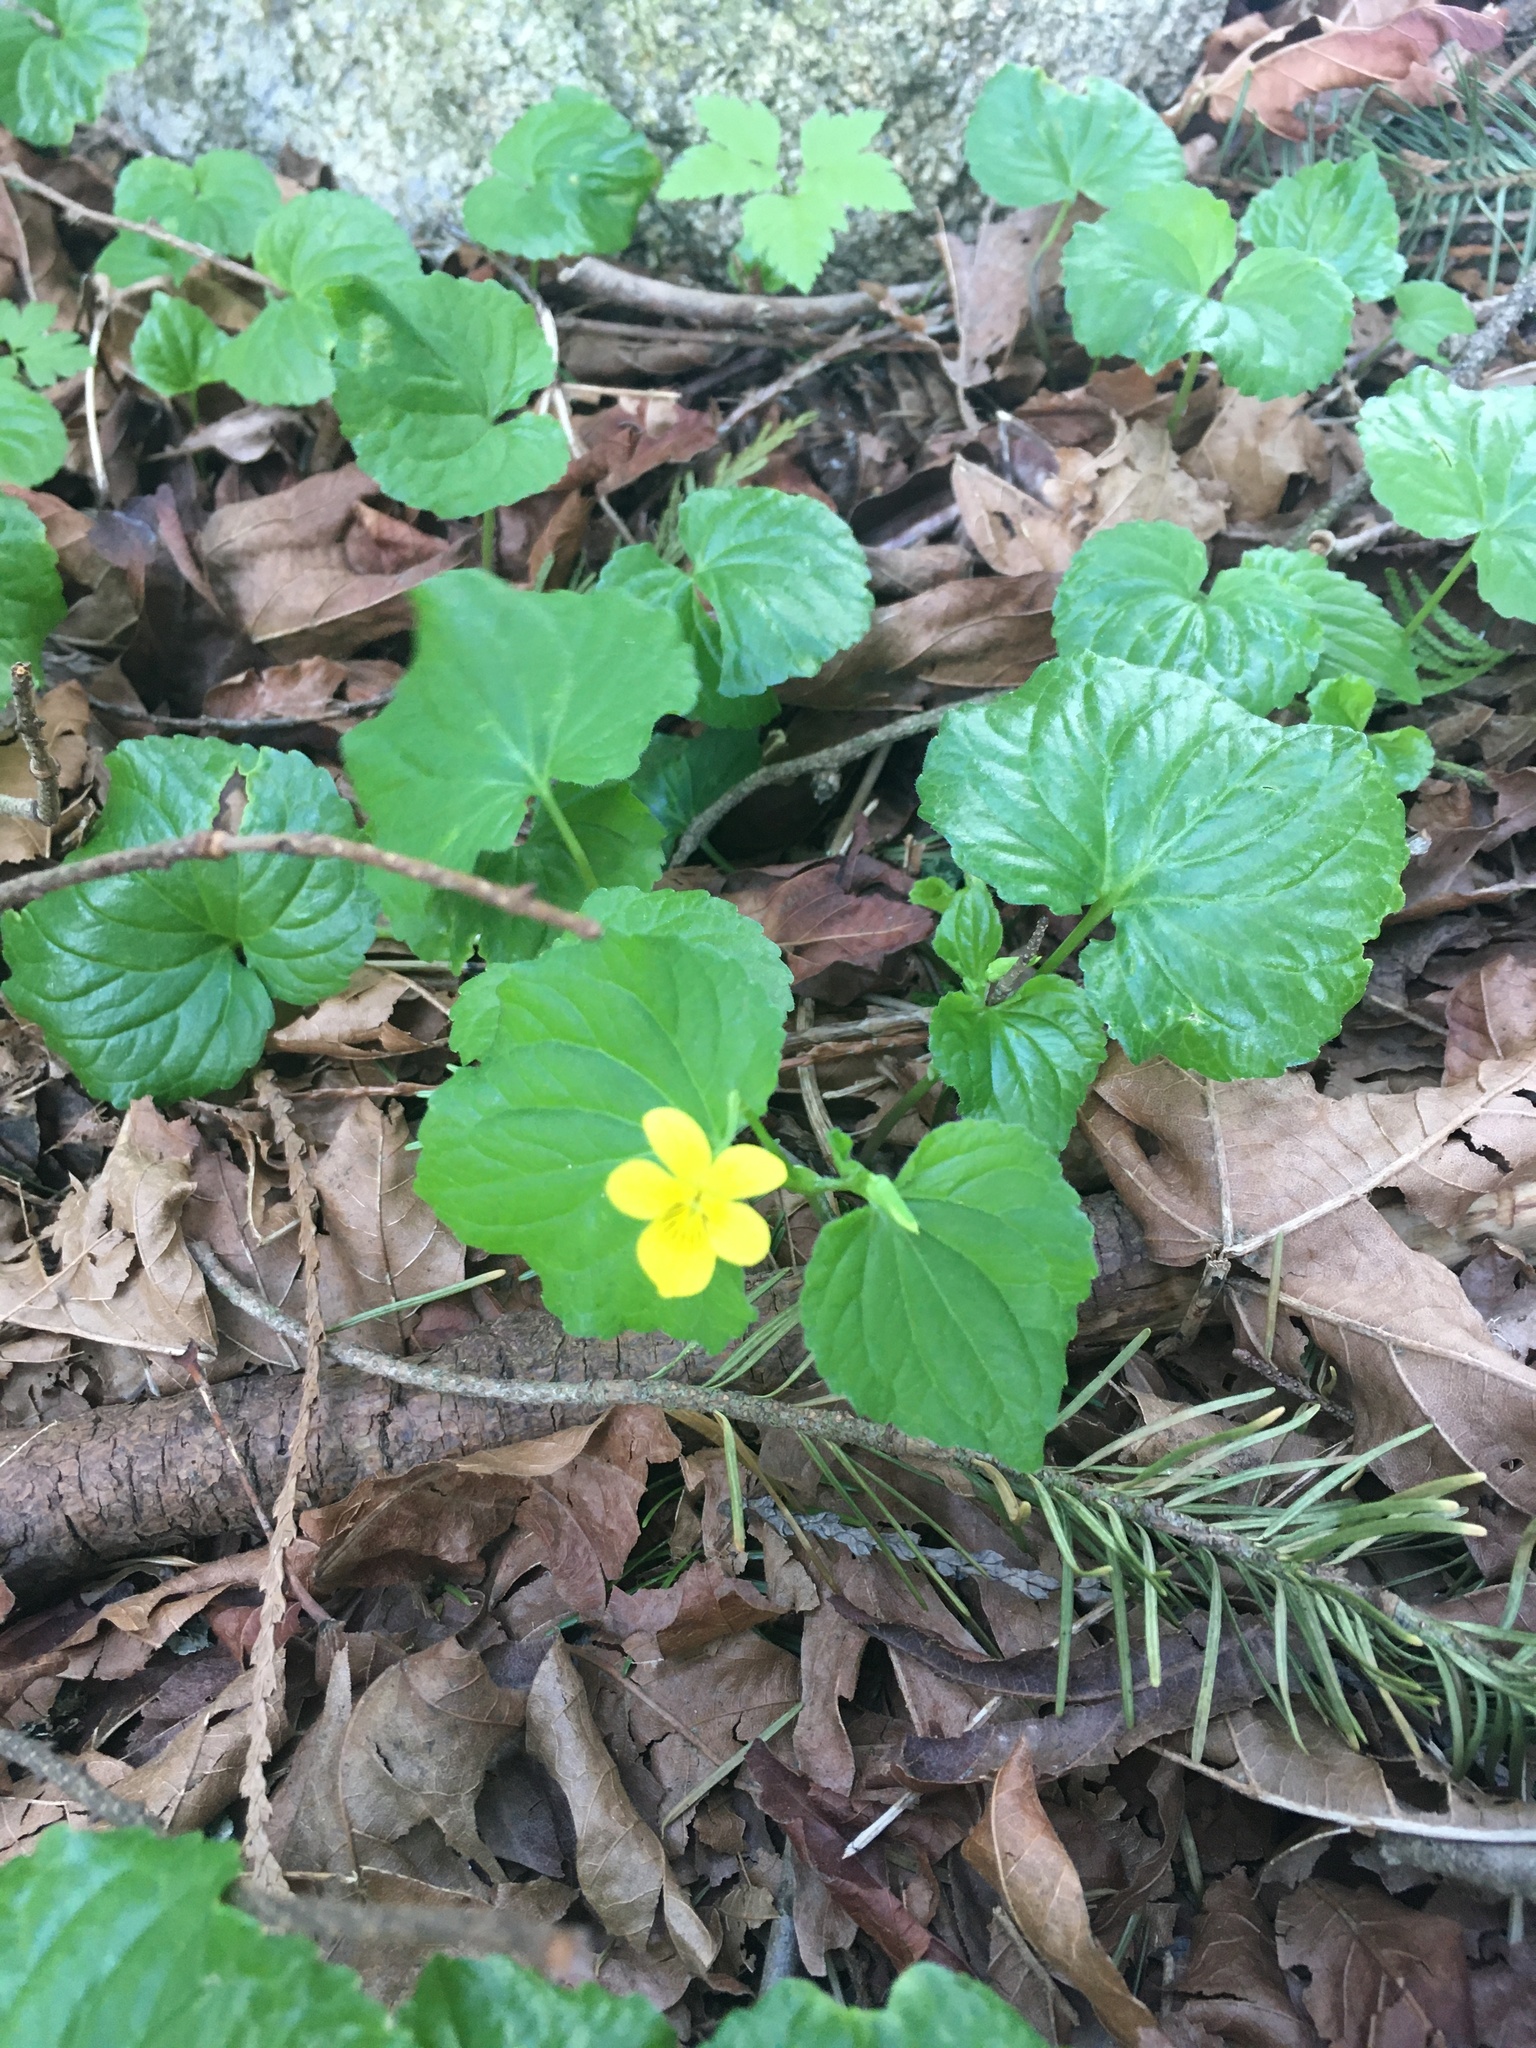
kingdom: Plantae
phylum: Tracheophyta
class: Magnoliopsida
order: Malpighiales
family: Violaceae
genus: Viola
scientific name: Viola glabella
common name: Stream violet
